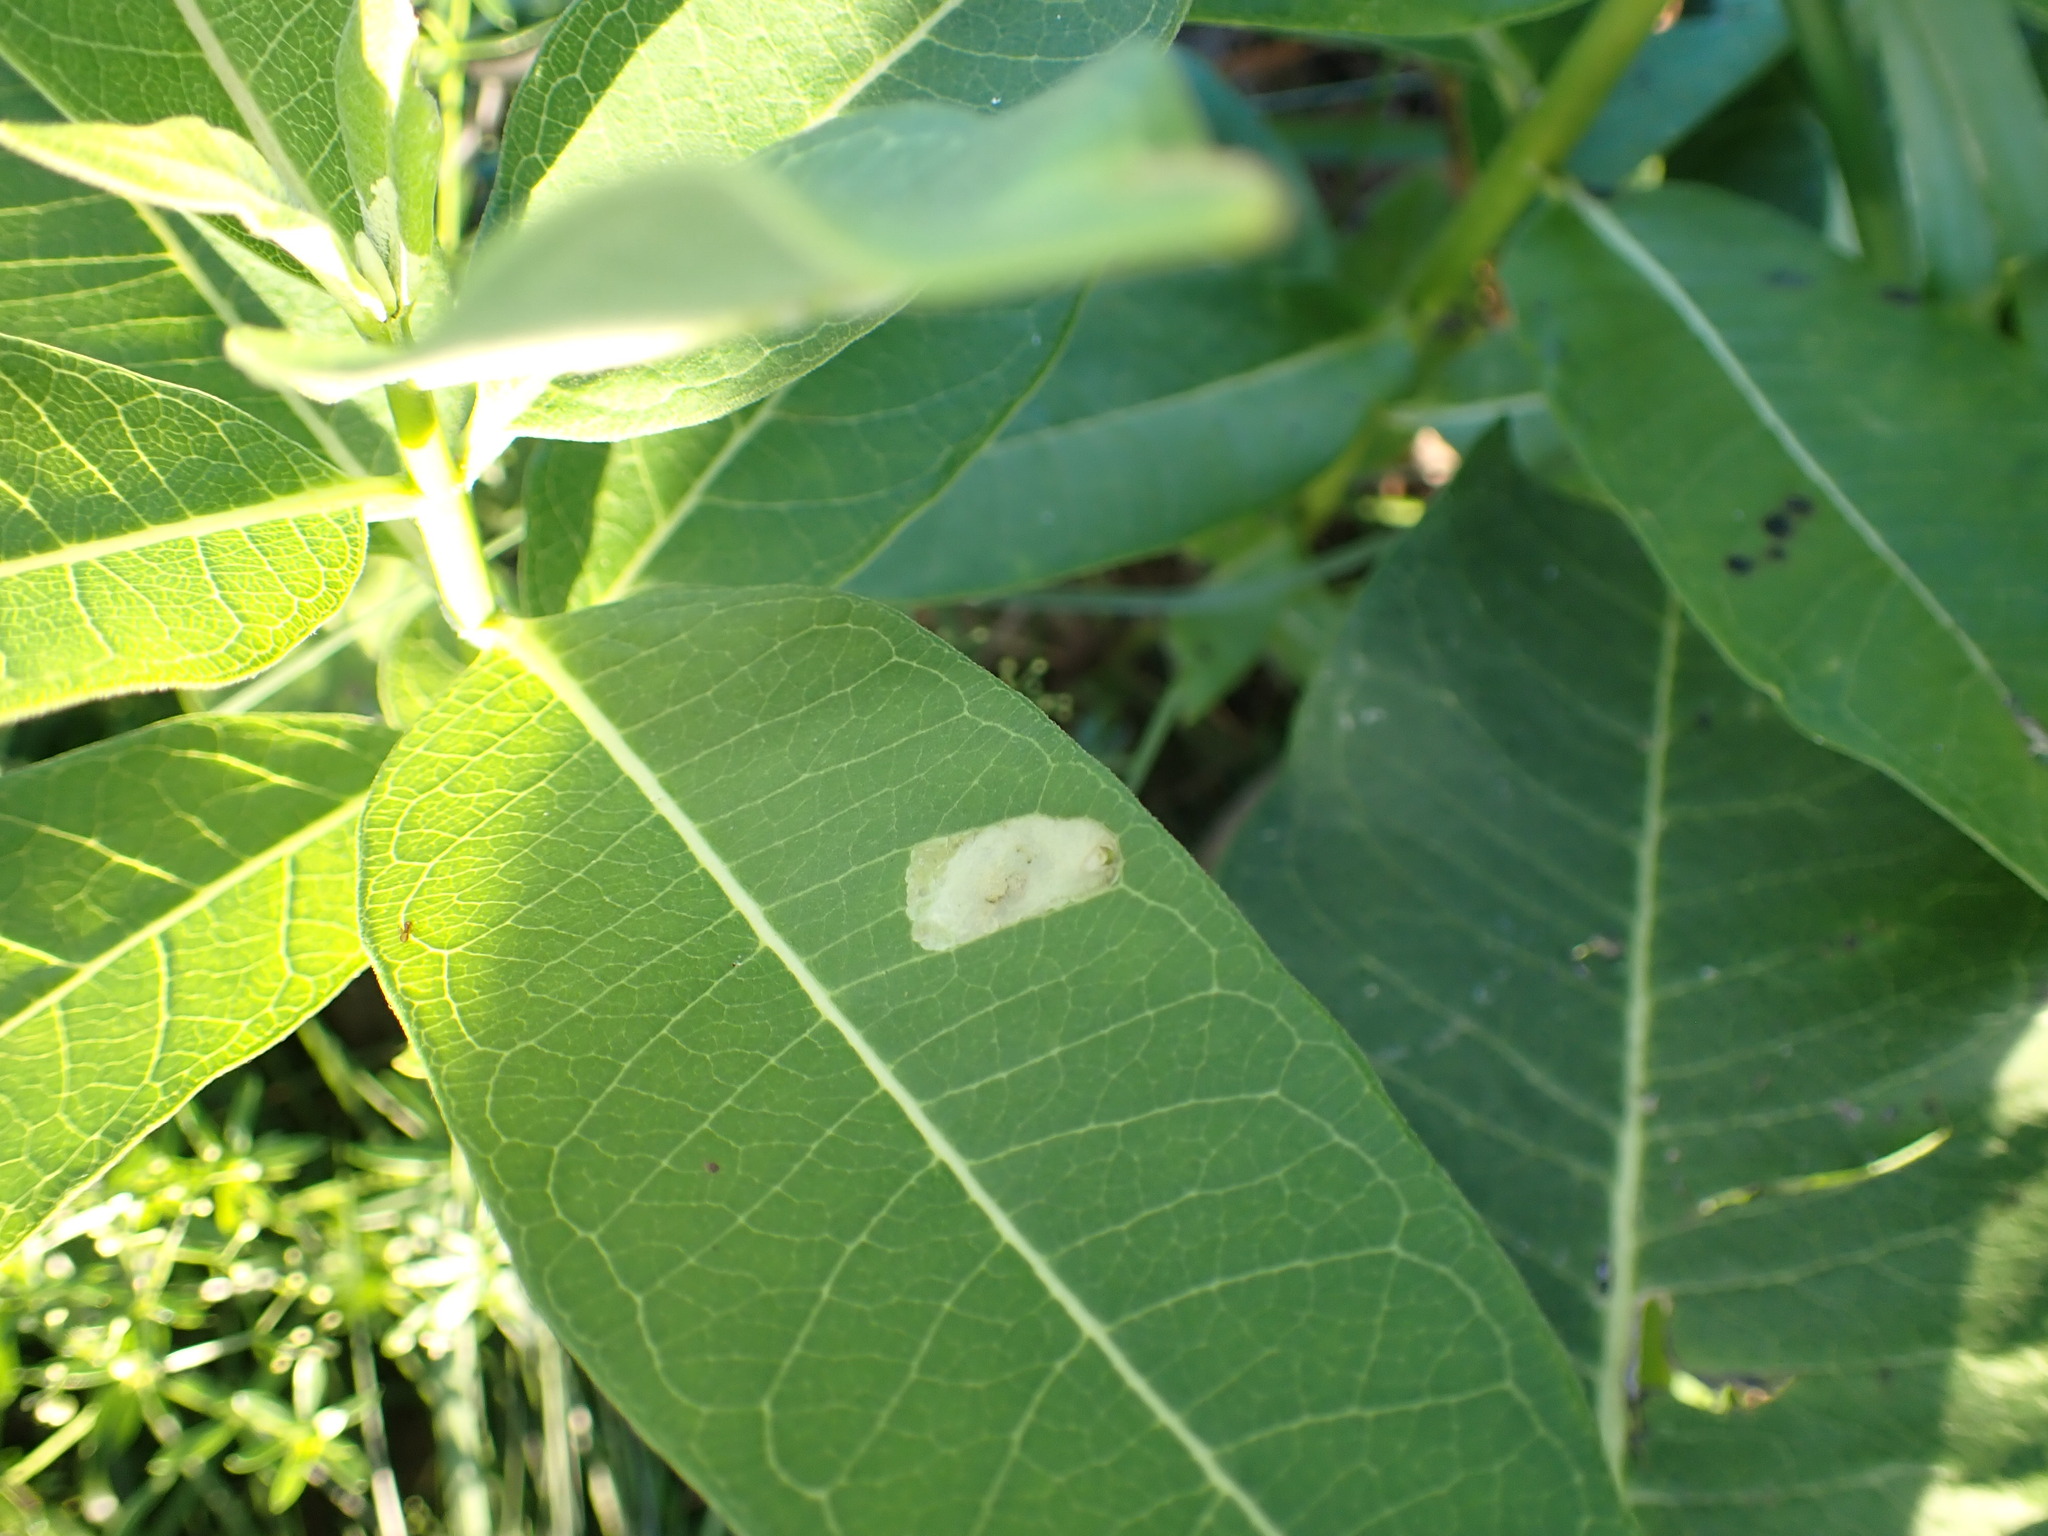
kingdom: Animalia
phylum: Arthropoda
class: Insecta
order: Diptera
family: Agromyzidae
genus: Liriomyza
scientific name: Liriomyza asclepiadis
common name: Milkweed leaf-miner fly
